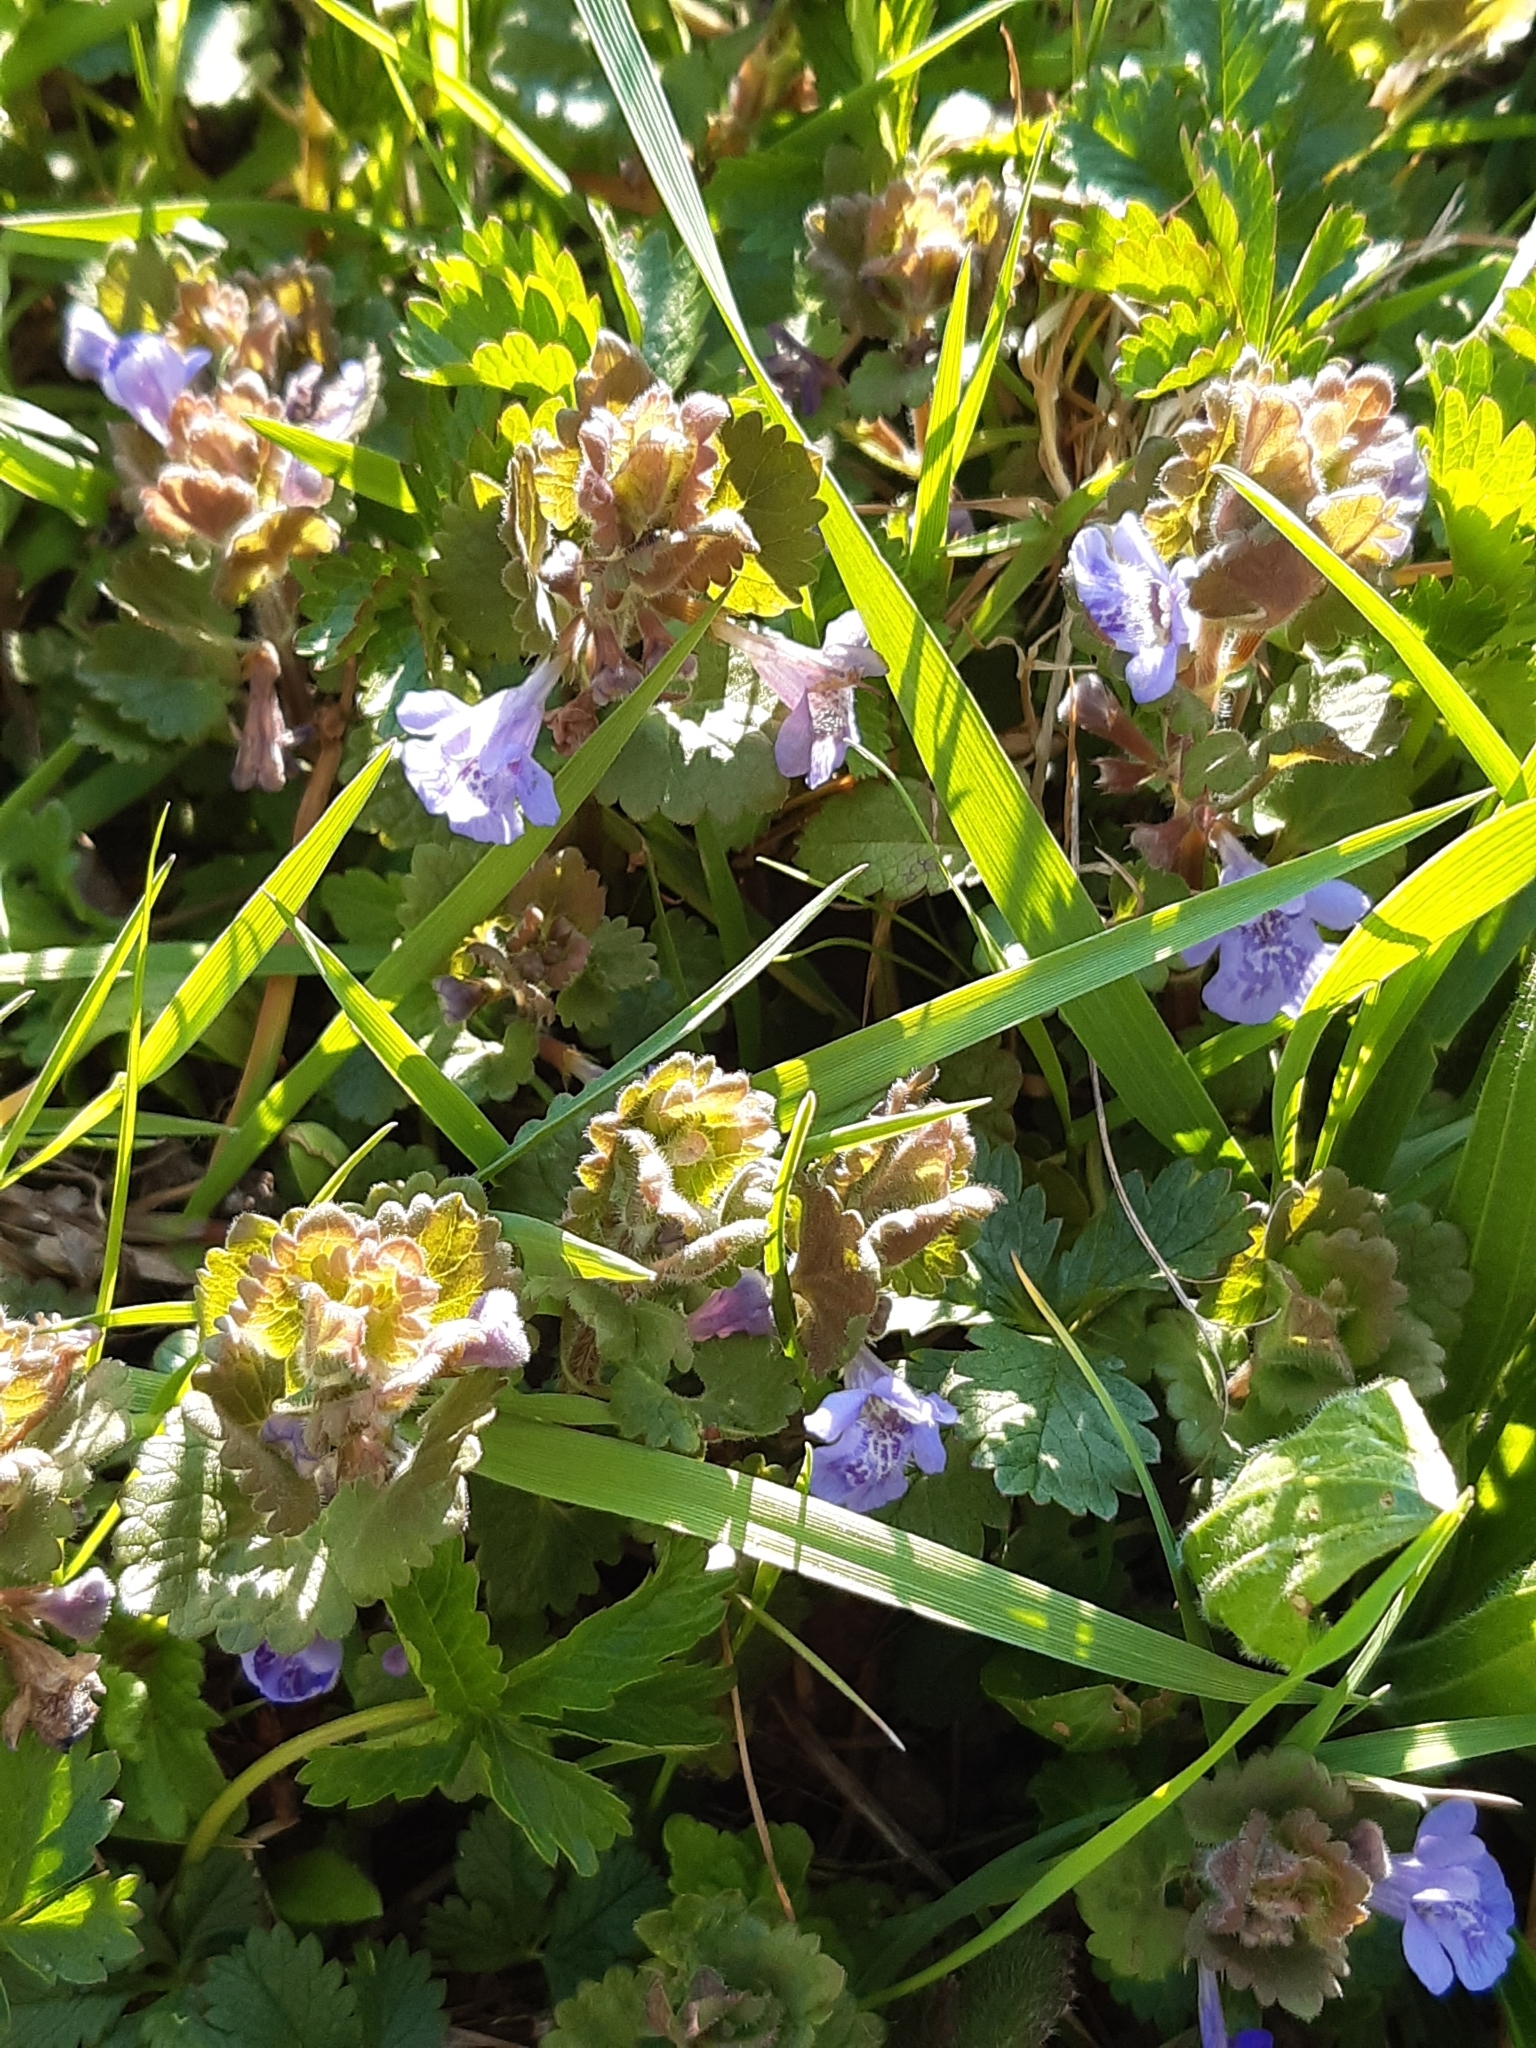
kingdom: Plantae
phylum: Tracheophyta
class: Magnoliopsida
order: Lamiales
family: Lamiaceae
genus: Glechoma
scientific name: Glechoma hederacea
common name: Ground ivy
